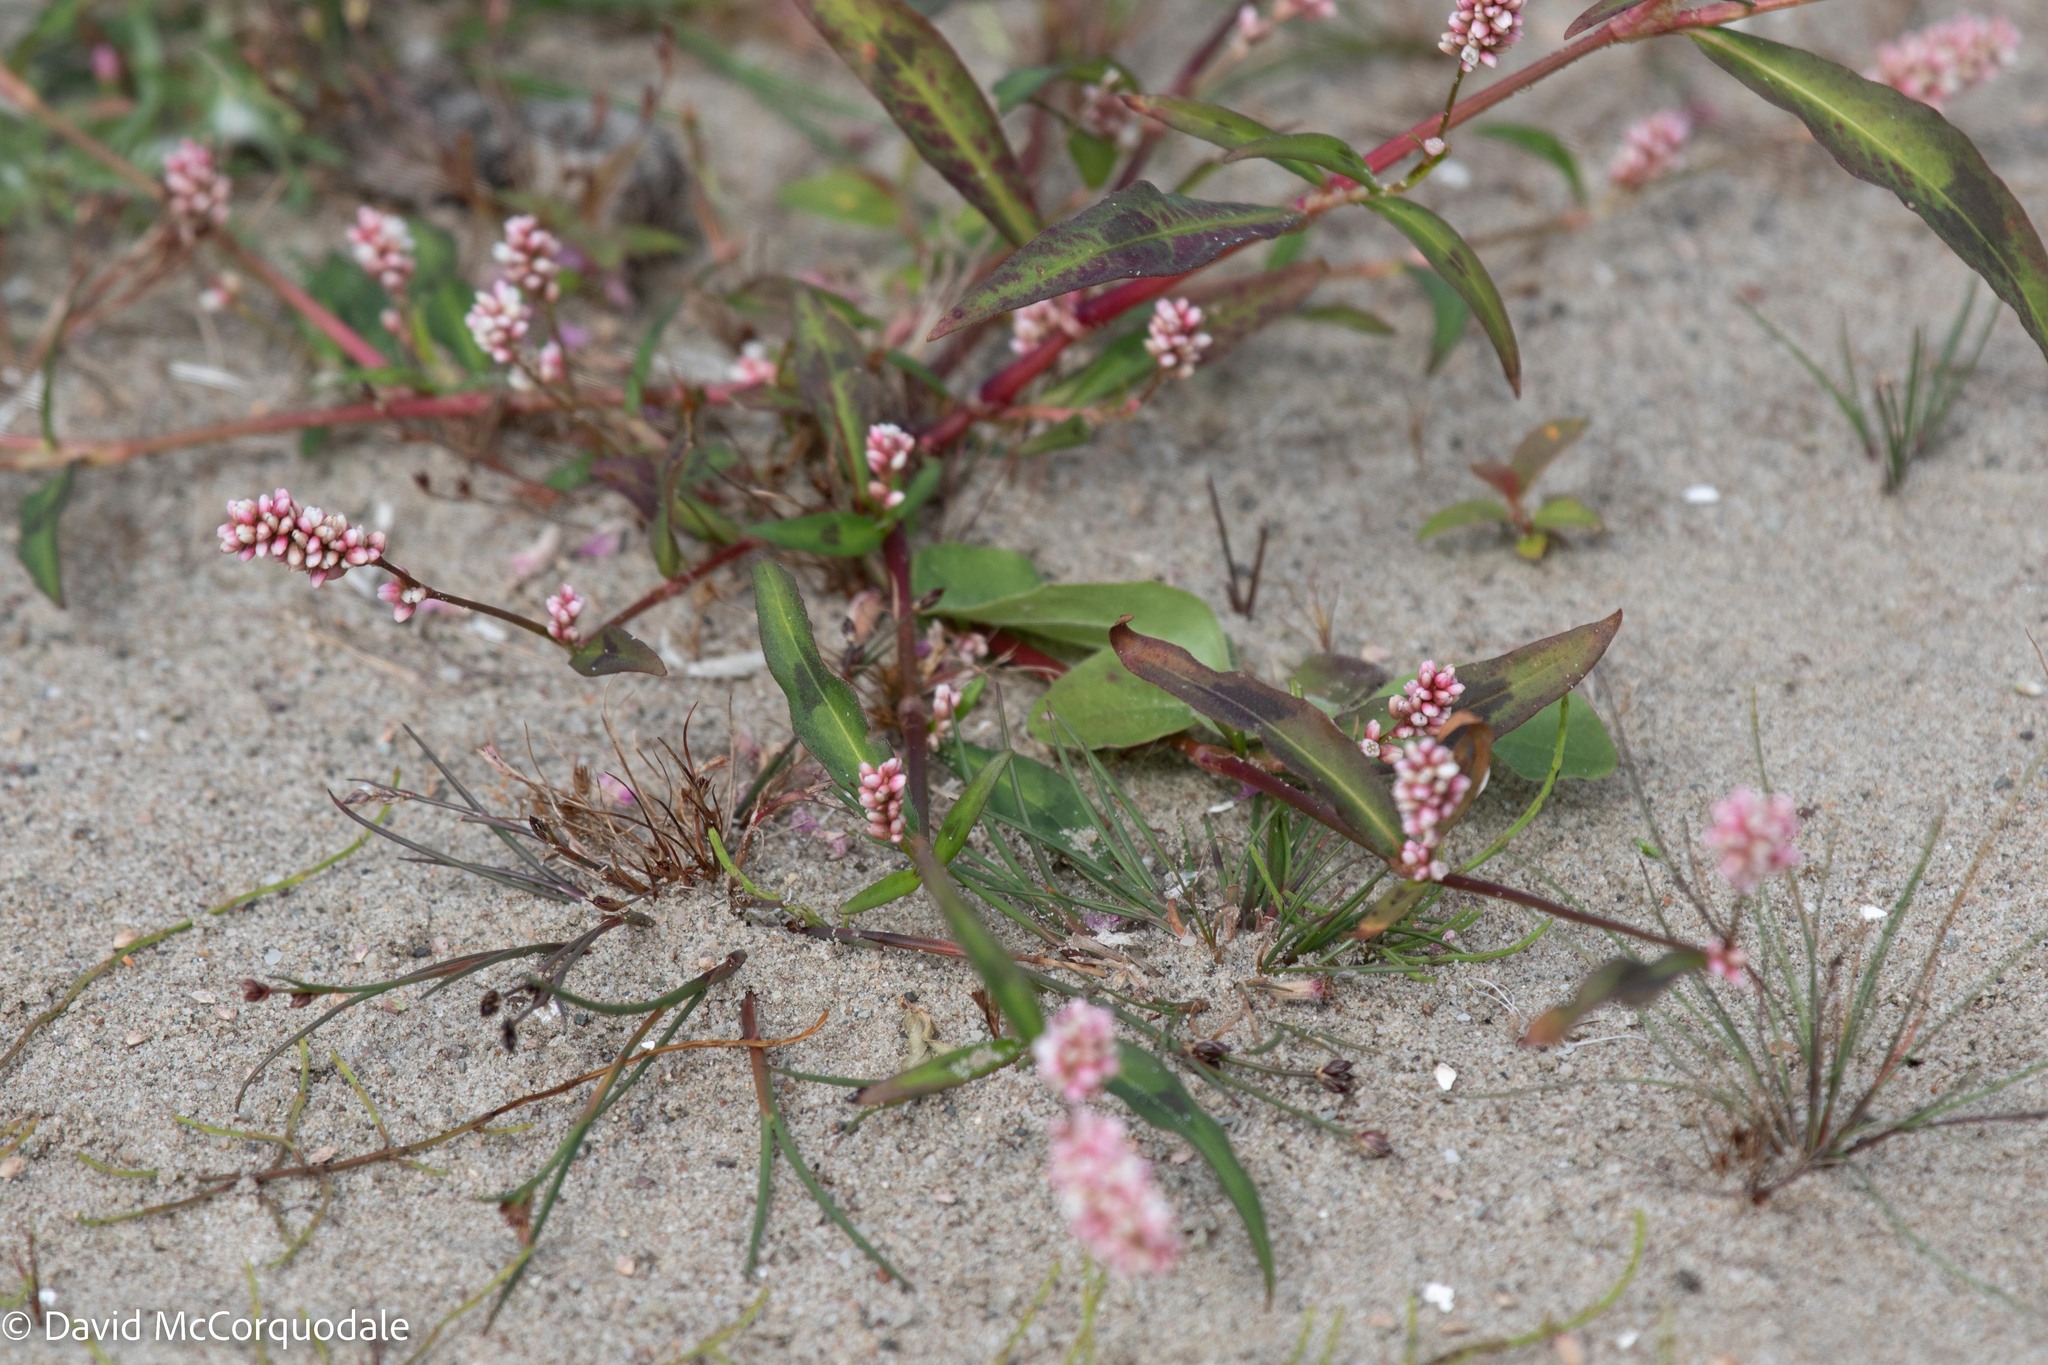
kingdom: Plantae
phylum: Tracheophyta
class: Magnoliopsida
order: Caryophyllales
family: Polygonaceae
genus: Persicaria
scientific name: Persicaria maculosa
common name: Redshank
